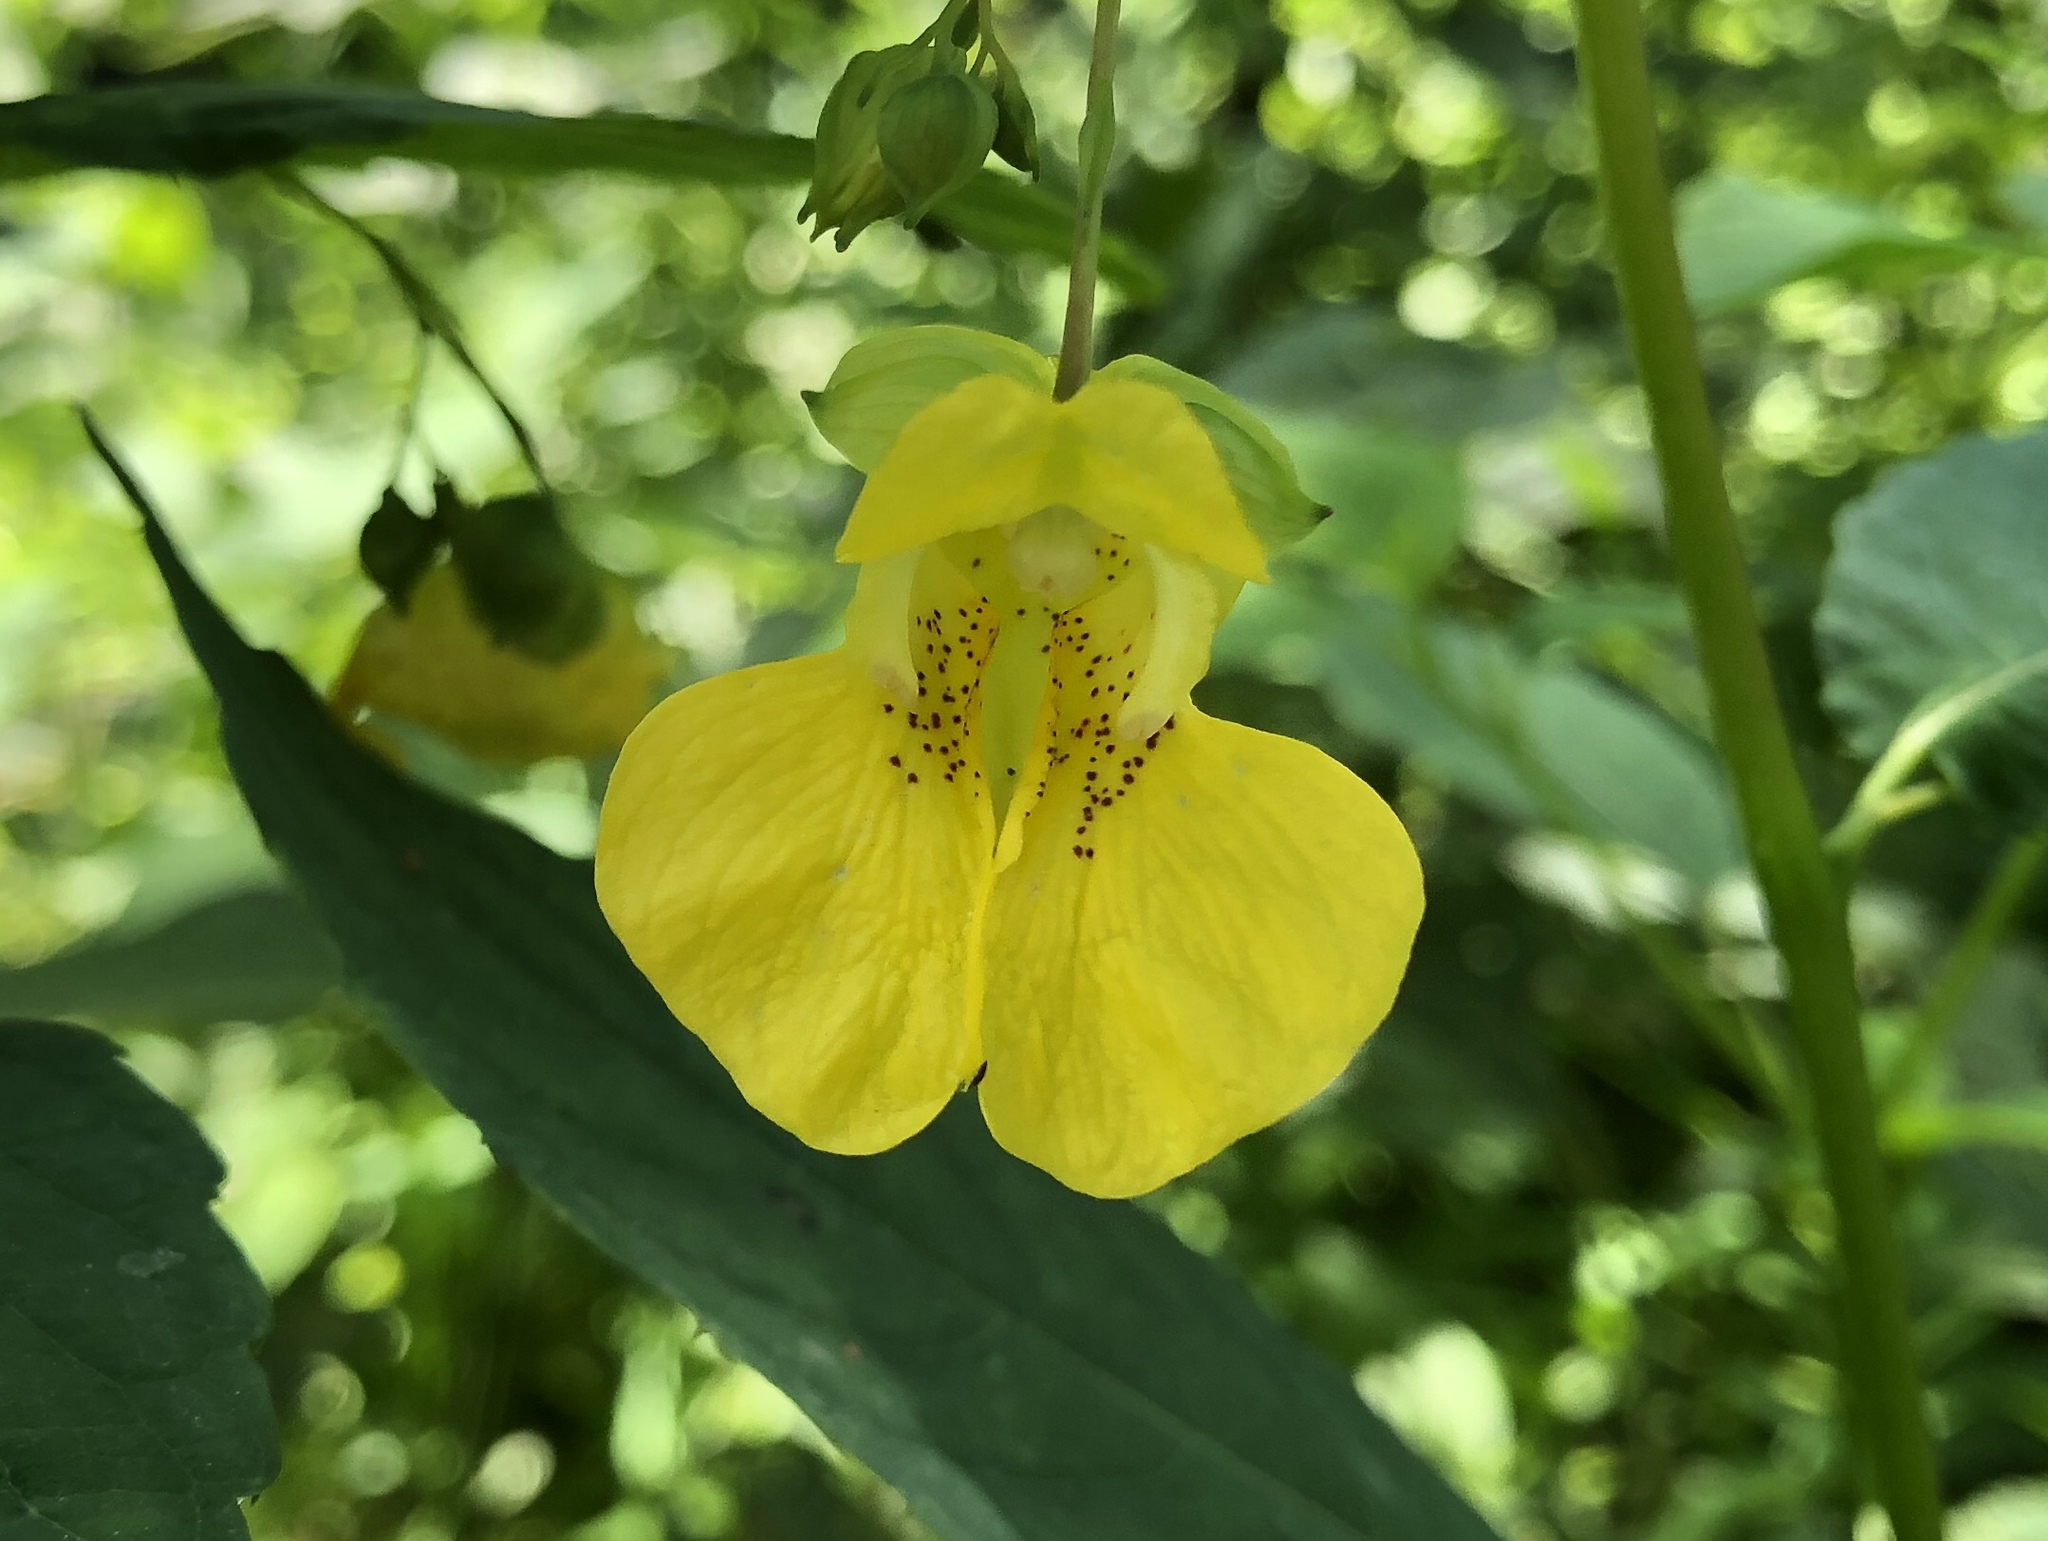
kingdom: Plantae
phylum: Tracheophyta
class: Magnoliopsida
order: Ericales
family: Balsaminaceae
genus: Impatiens
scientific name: Impatiens pallida
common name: Pale snapweed
